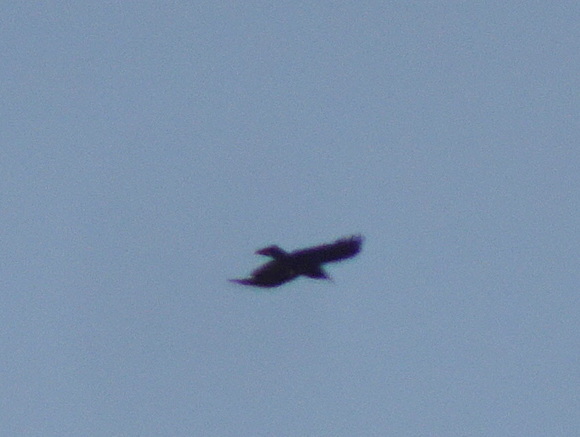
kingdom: Animalia
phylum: Chordata
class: Aves
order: Passeriformes
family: Corvidae
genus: Pyrrhocorax
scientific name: Pyrrhocorax pyrrhocorax
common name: Red-billed chough
